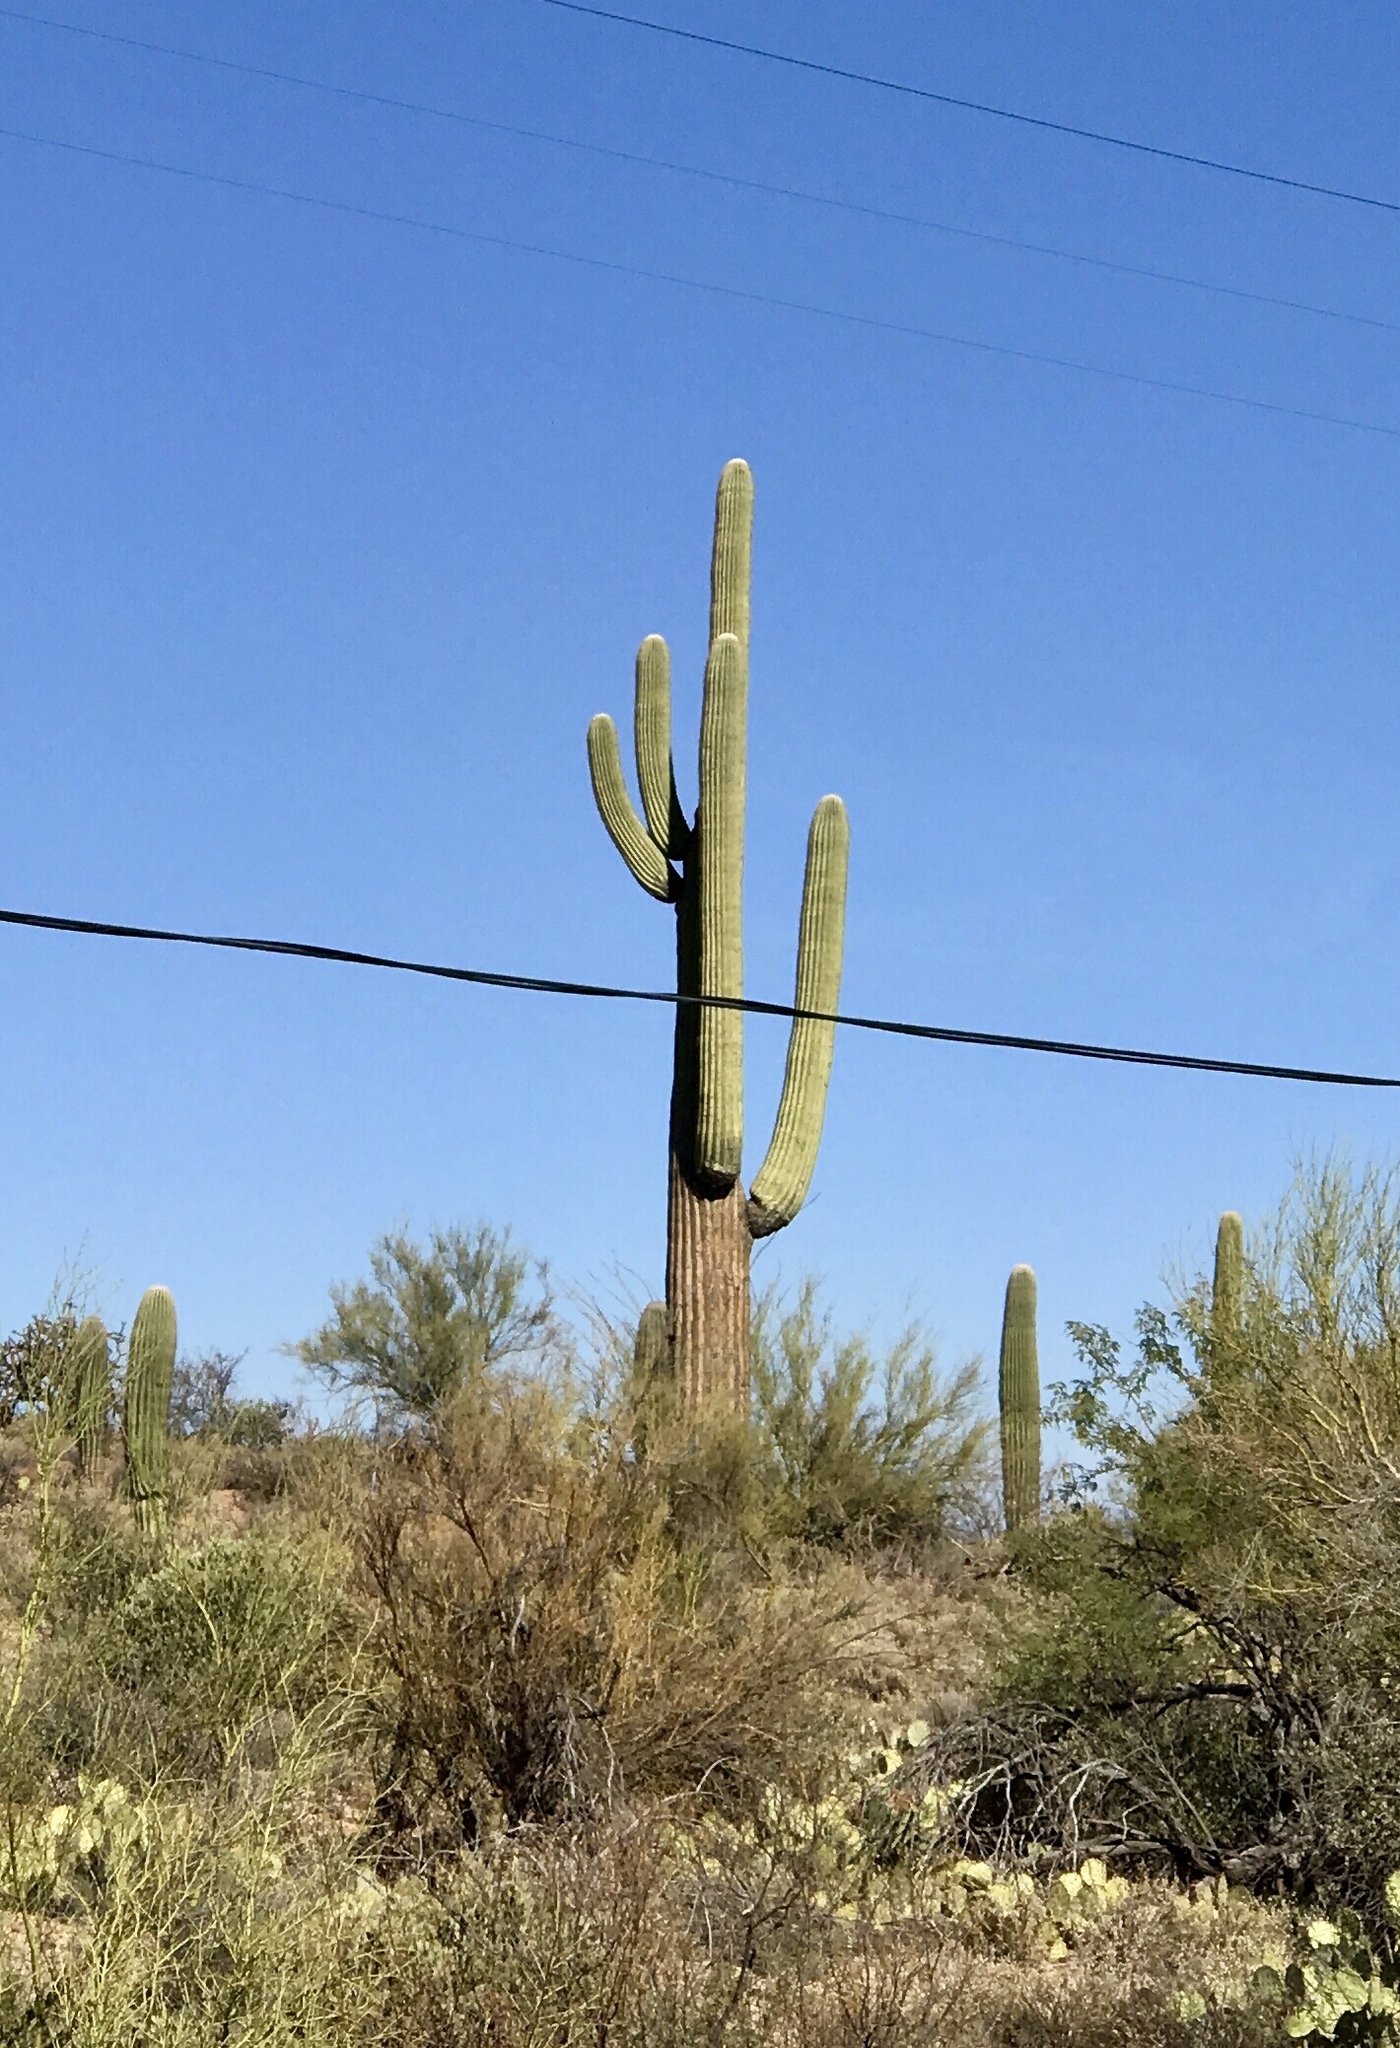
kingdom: Plantae
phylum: Tracheophyta
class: Magnoliopsida
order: Caryophyllales
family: Cactaceae
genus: Carnegiea
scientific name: Carnegiea gigantea
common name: Saguaro
